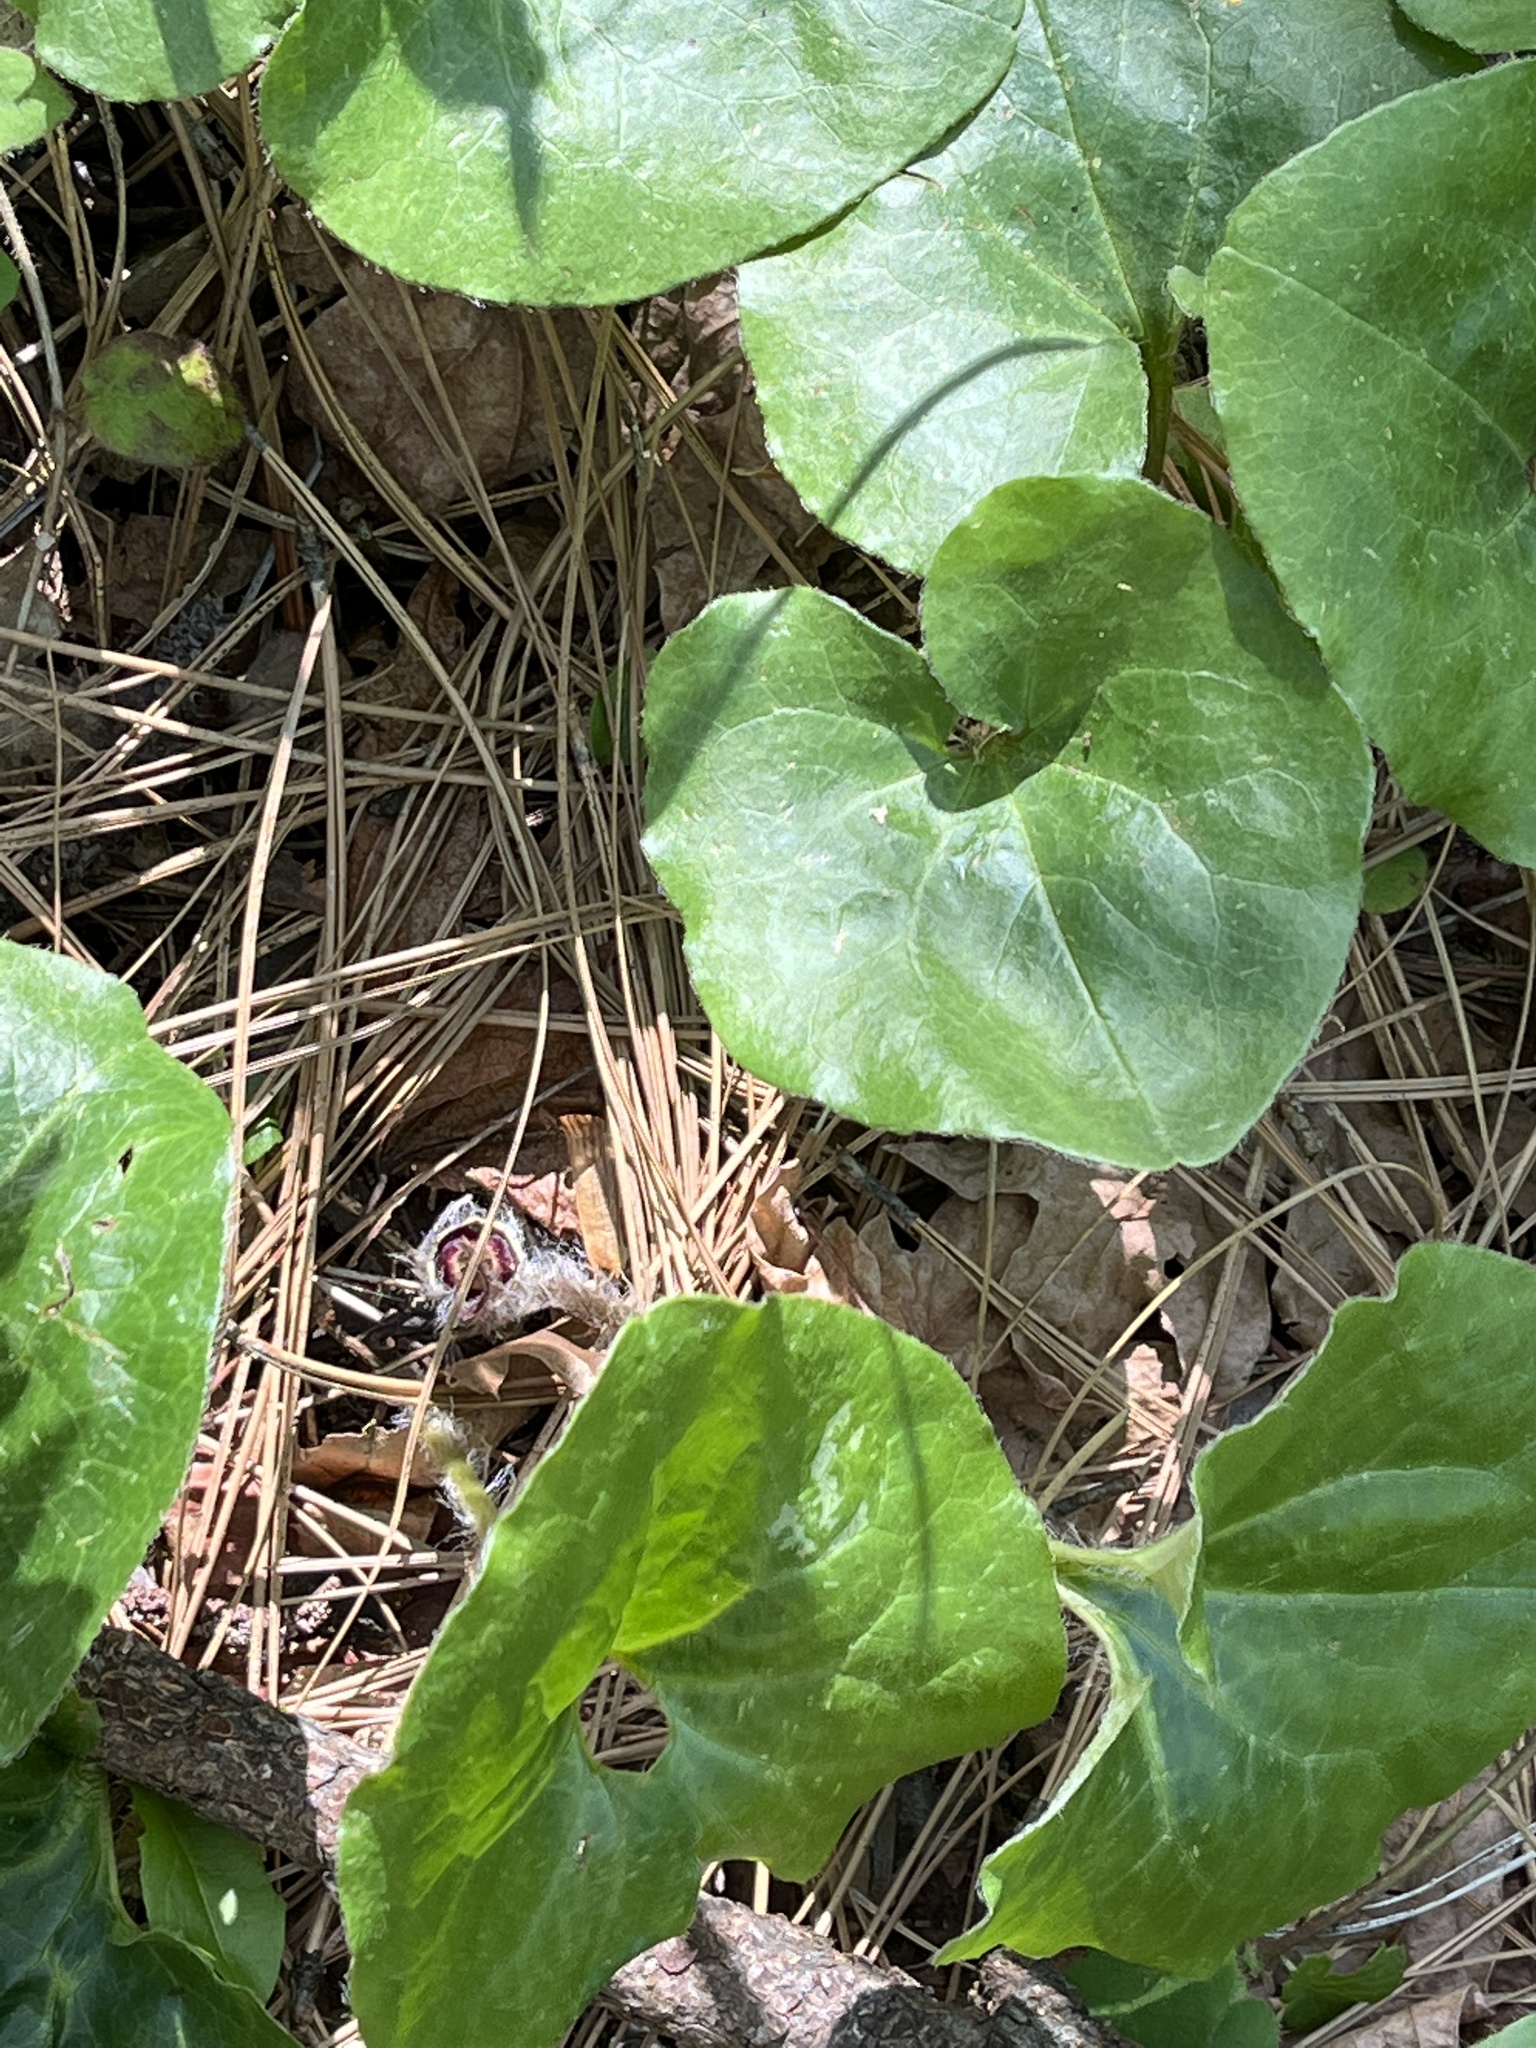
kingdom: Plantae
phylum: Tracheophyta
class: Magnoliopsida
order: Piperales
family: Aristolochiaceae
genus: Asarum
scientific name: Asarum hartwegii
